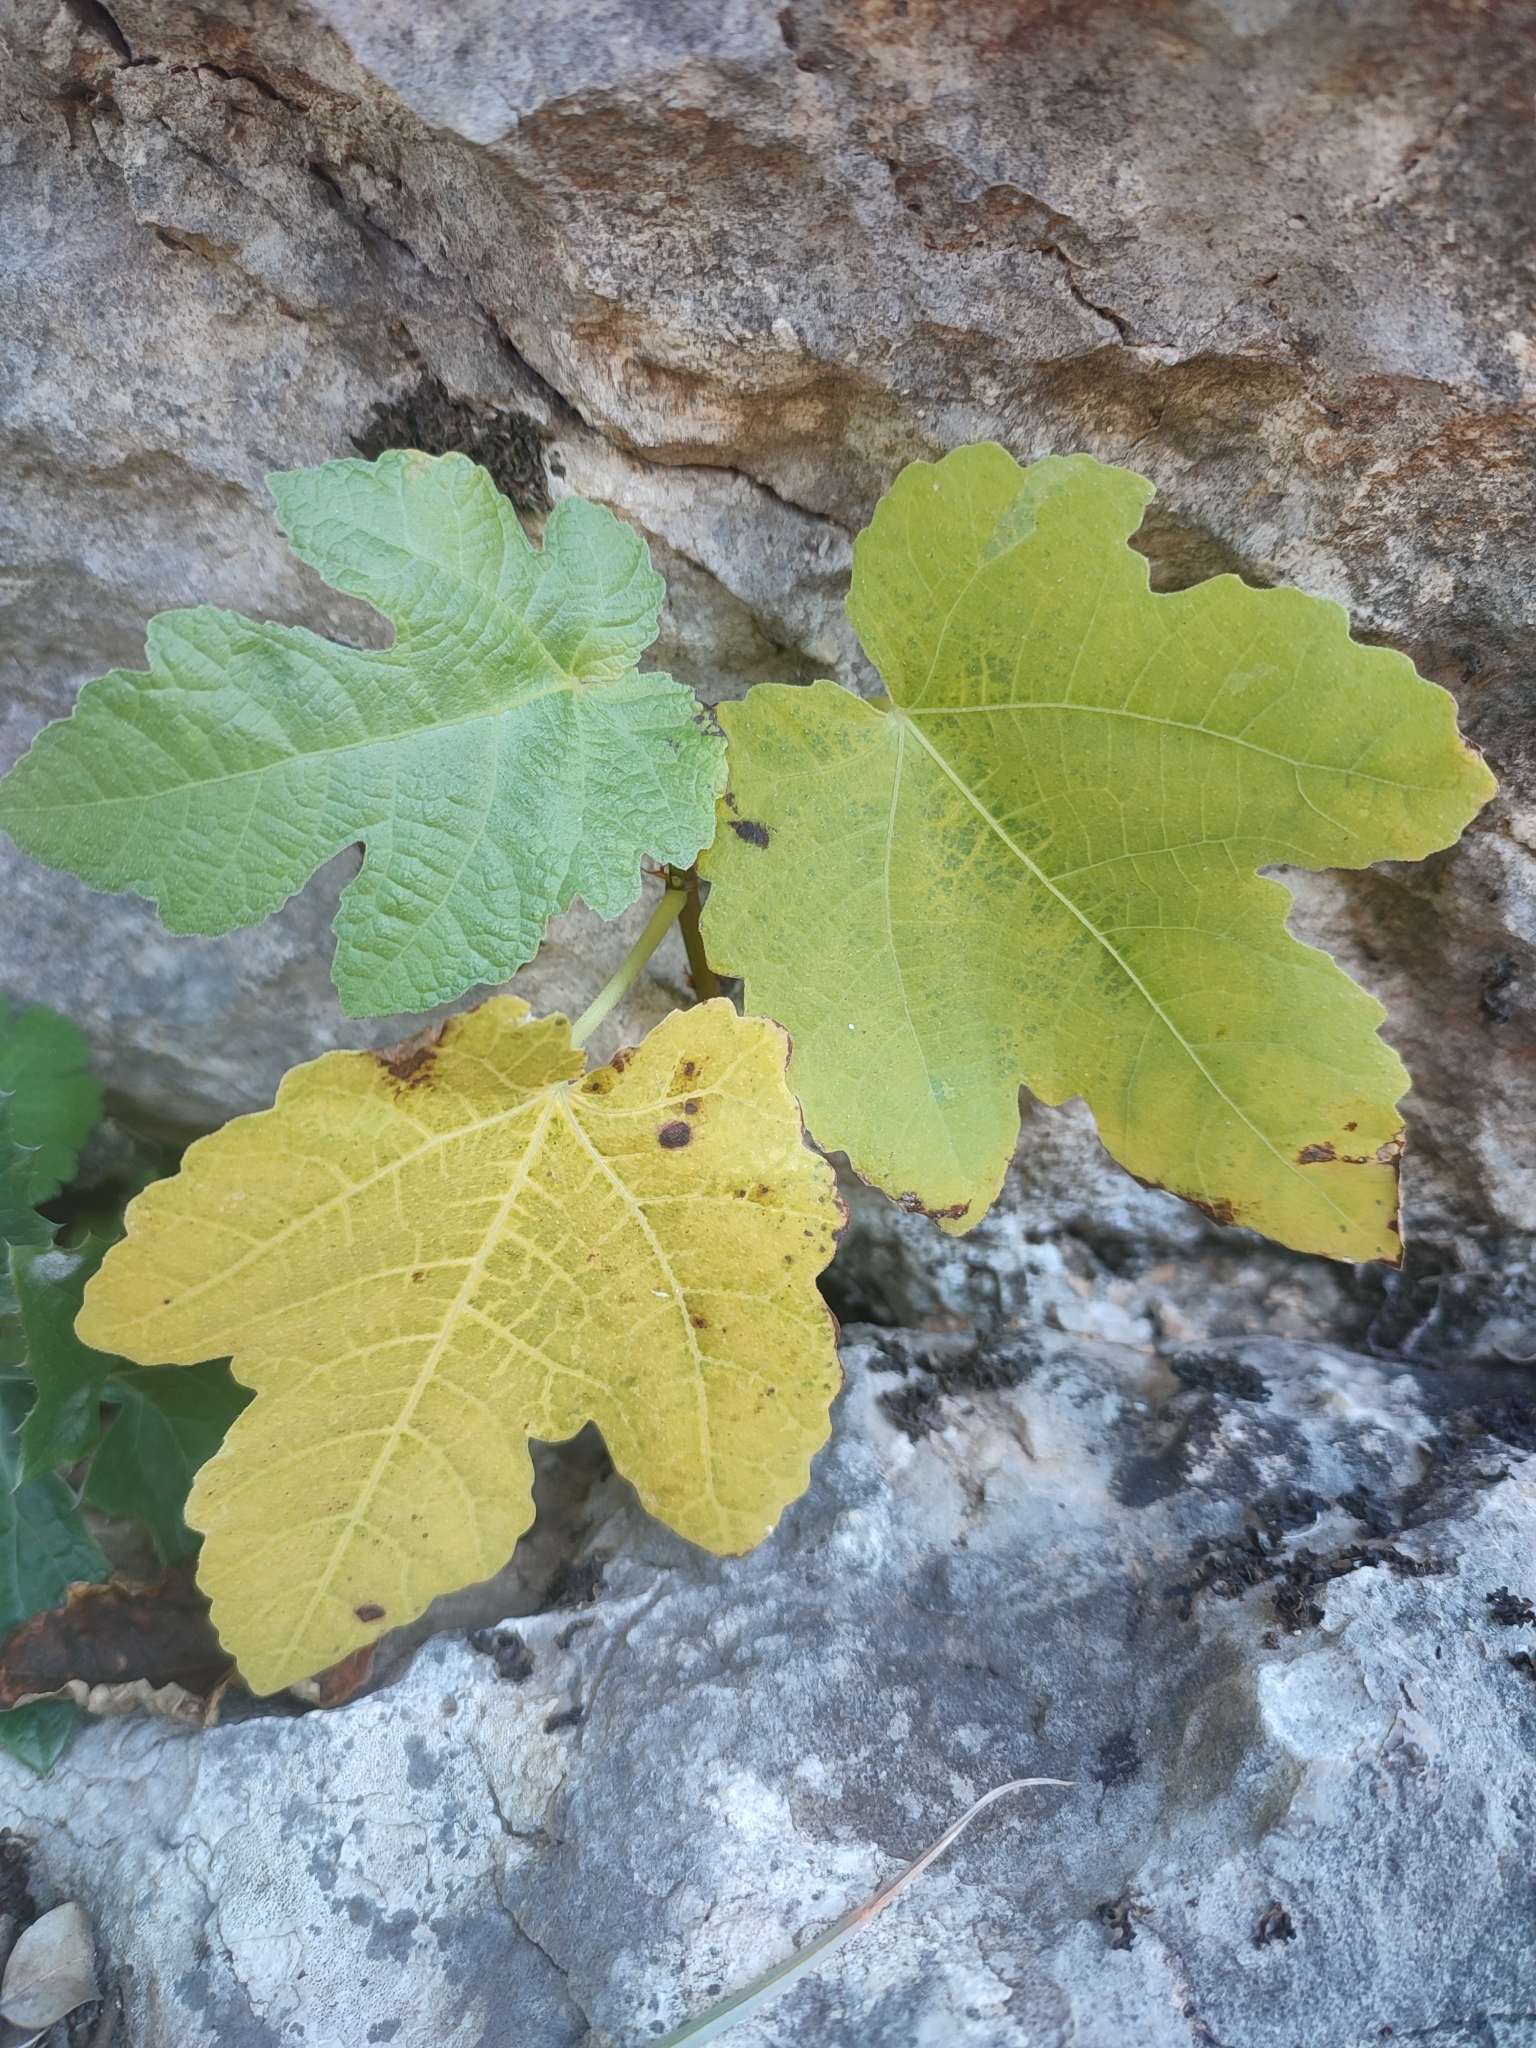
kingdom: Plantae
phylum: Tracheophyta
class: Magnoliopsida
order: Rosales
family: Moraceae
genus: Ficus
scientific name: Ficus carica
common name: Fig
